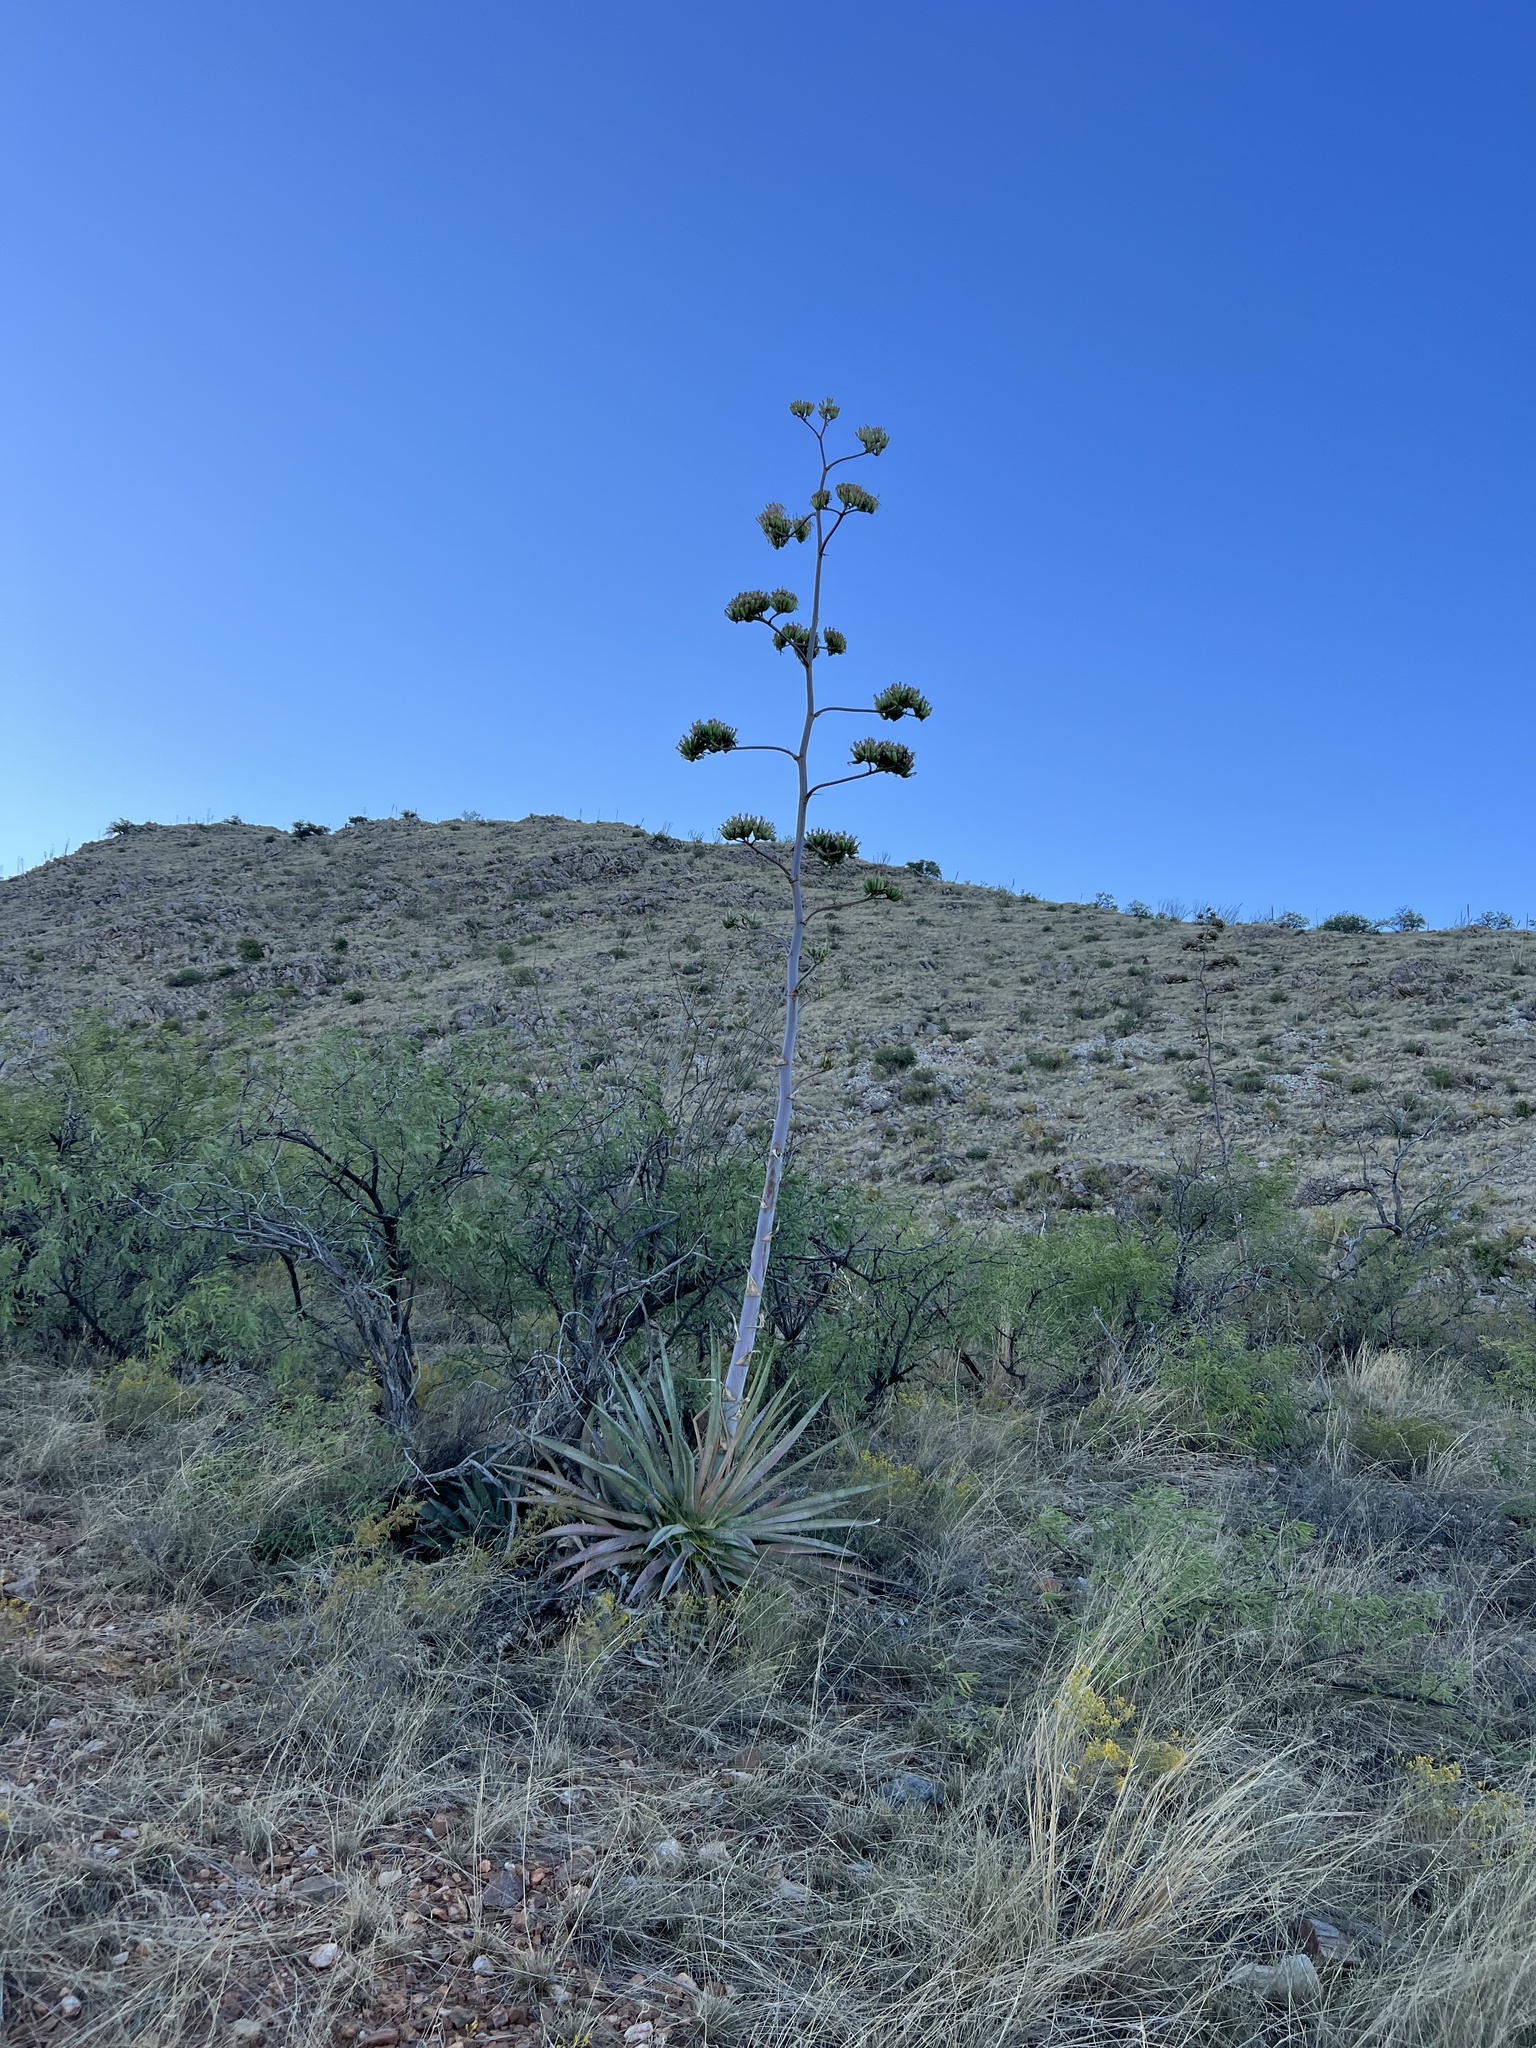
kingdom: Plantae
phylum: Tracheophyta
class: Liliopsida
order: Asparagales
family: Asparagaceae
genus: Agave
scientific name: Agave palmeri
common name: Palmer agave
